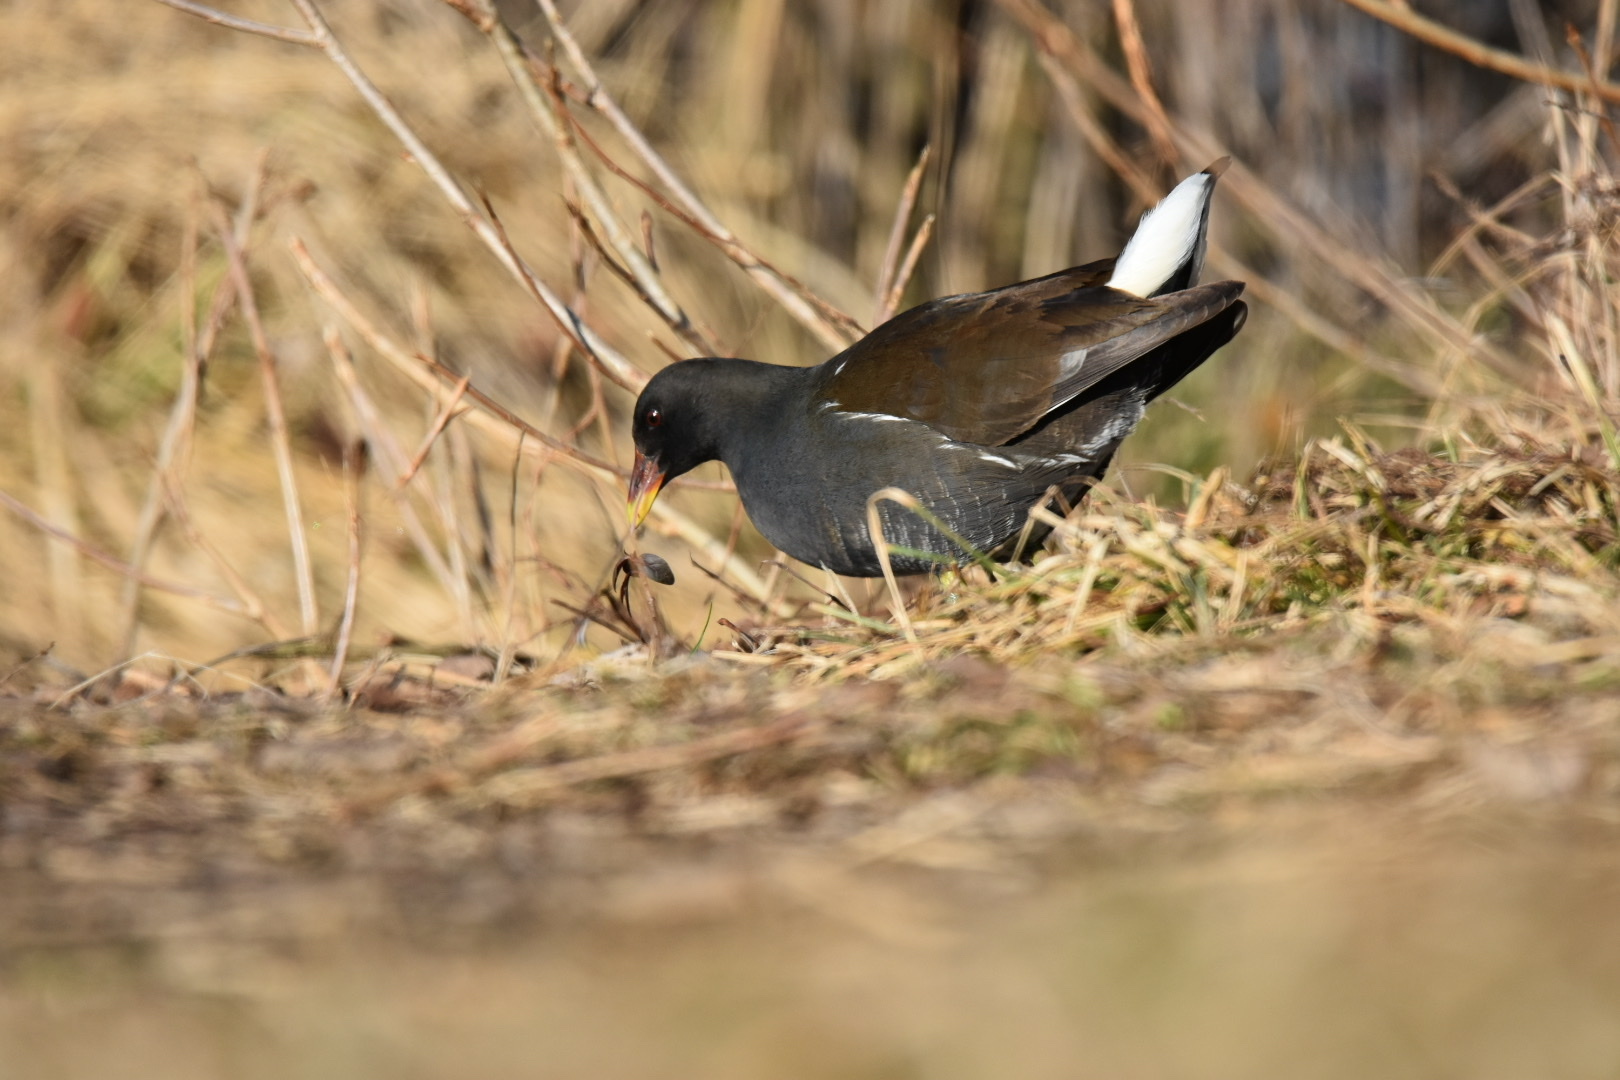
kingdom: Animalia
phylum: Chordata
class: Aves
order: Gruiformes
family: Rallidae
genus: Gallinula
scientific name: Gallinula chloropus
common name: Common moorhen
